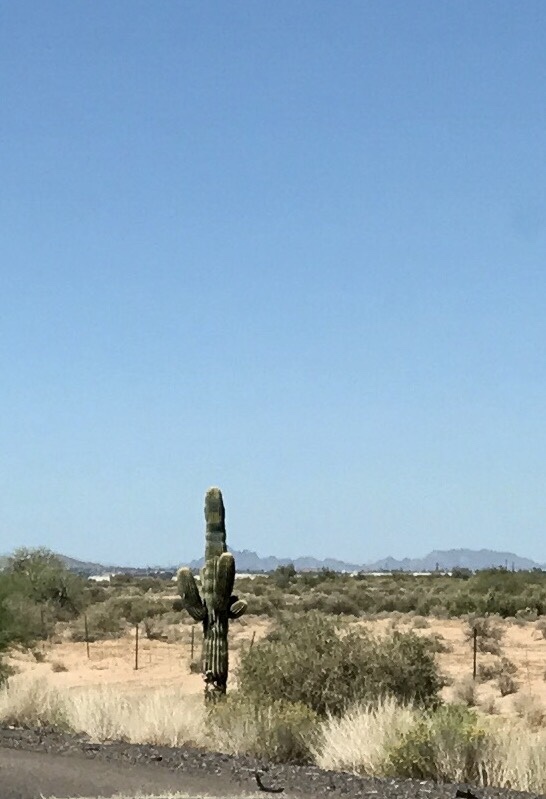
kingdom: Plantae
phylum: Tracheophyta
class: Magnoliopsida
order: Caryophyllales
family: Cactaceae
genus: Carnegiea
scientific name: Carnegiea gigantea
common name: Saguaro
